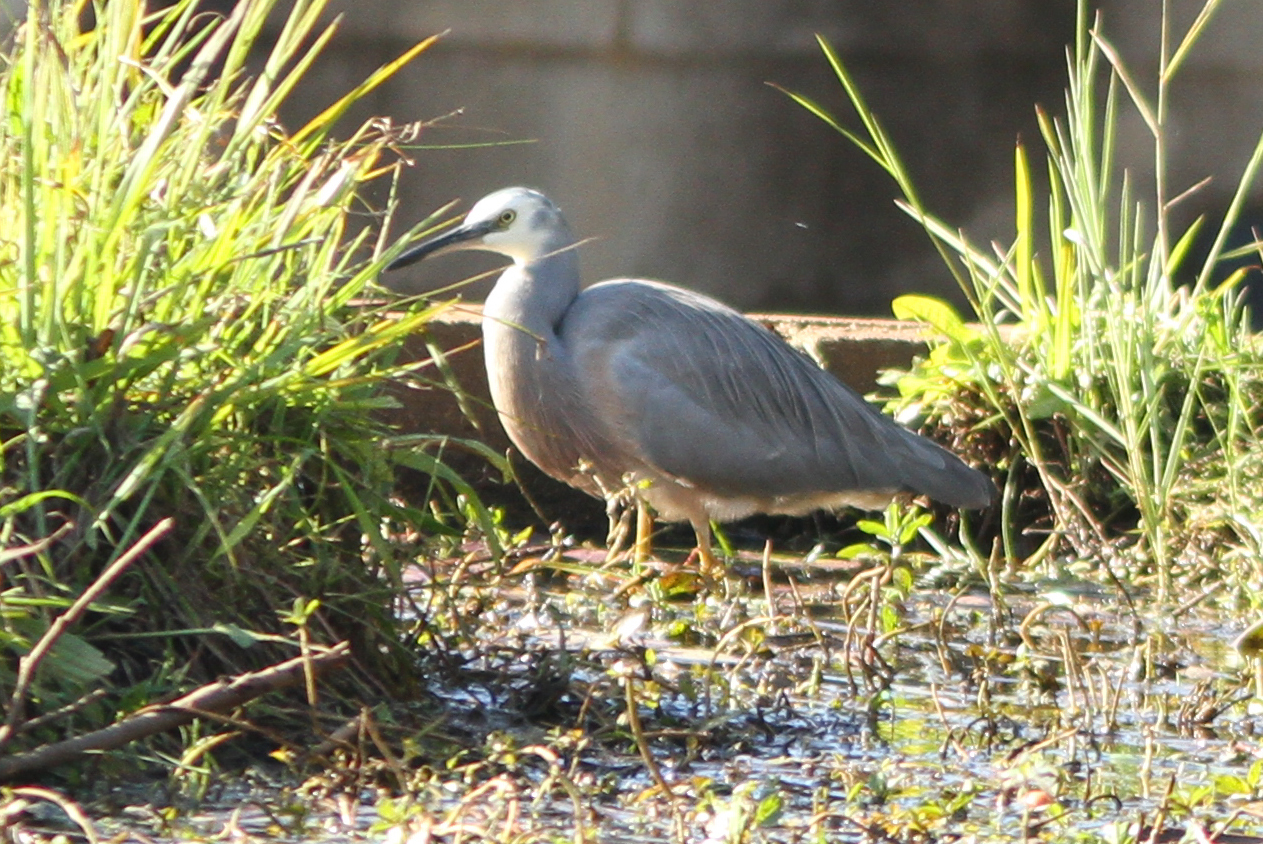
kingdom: Animalia
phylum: Chordata
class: Aves
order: Pelecaniformes
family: Ardeidae
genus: Egretta
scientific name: Egretta novaehollandiae
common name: White-faced heron
